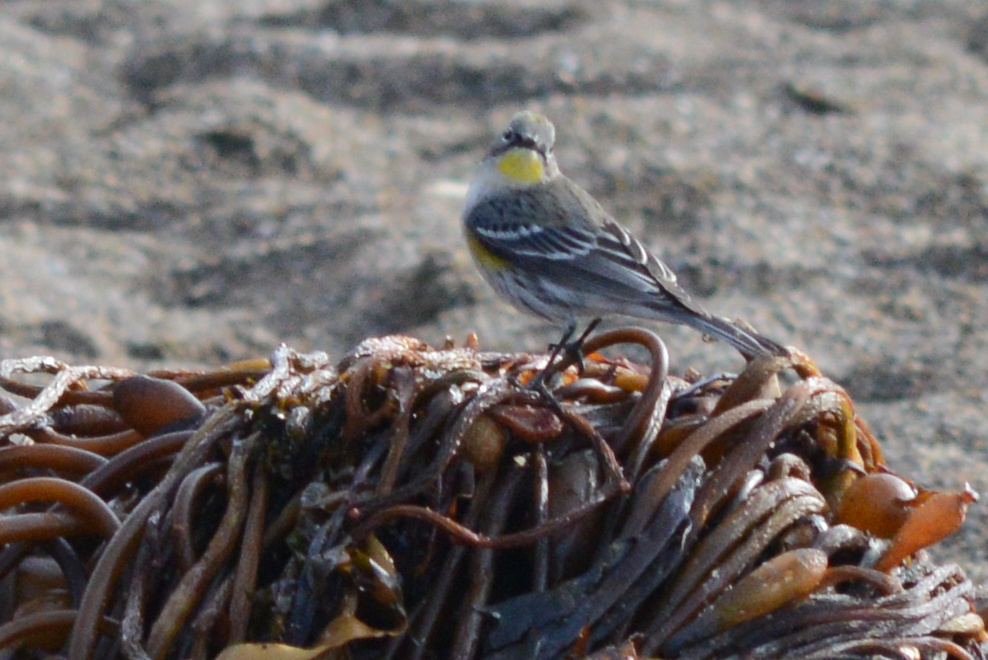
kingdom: Animalia
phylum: Chordata
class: Aves
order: Passeriformes
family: Parulidae
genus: Setophaga
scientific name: Setophaga coronata
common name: Myrtle warbler
